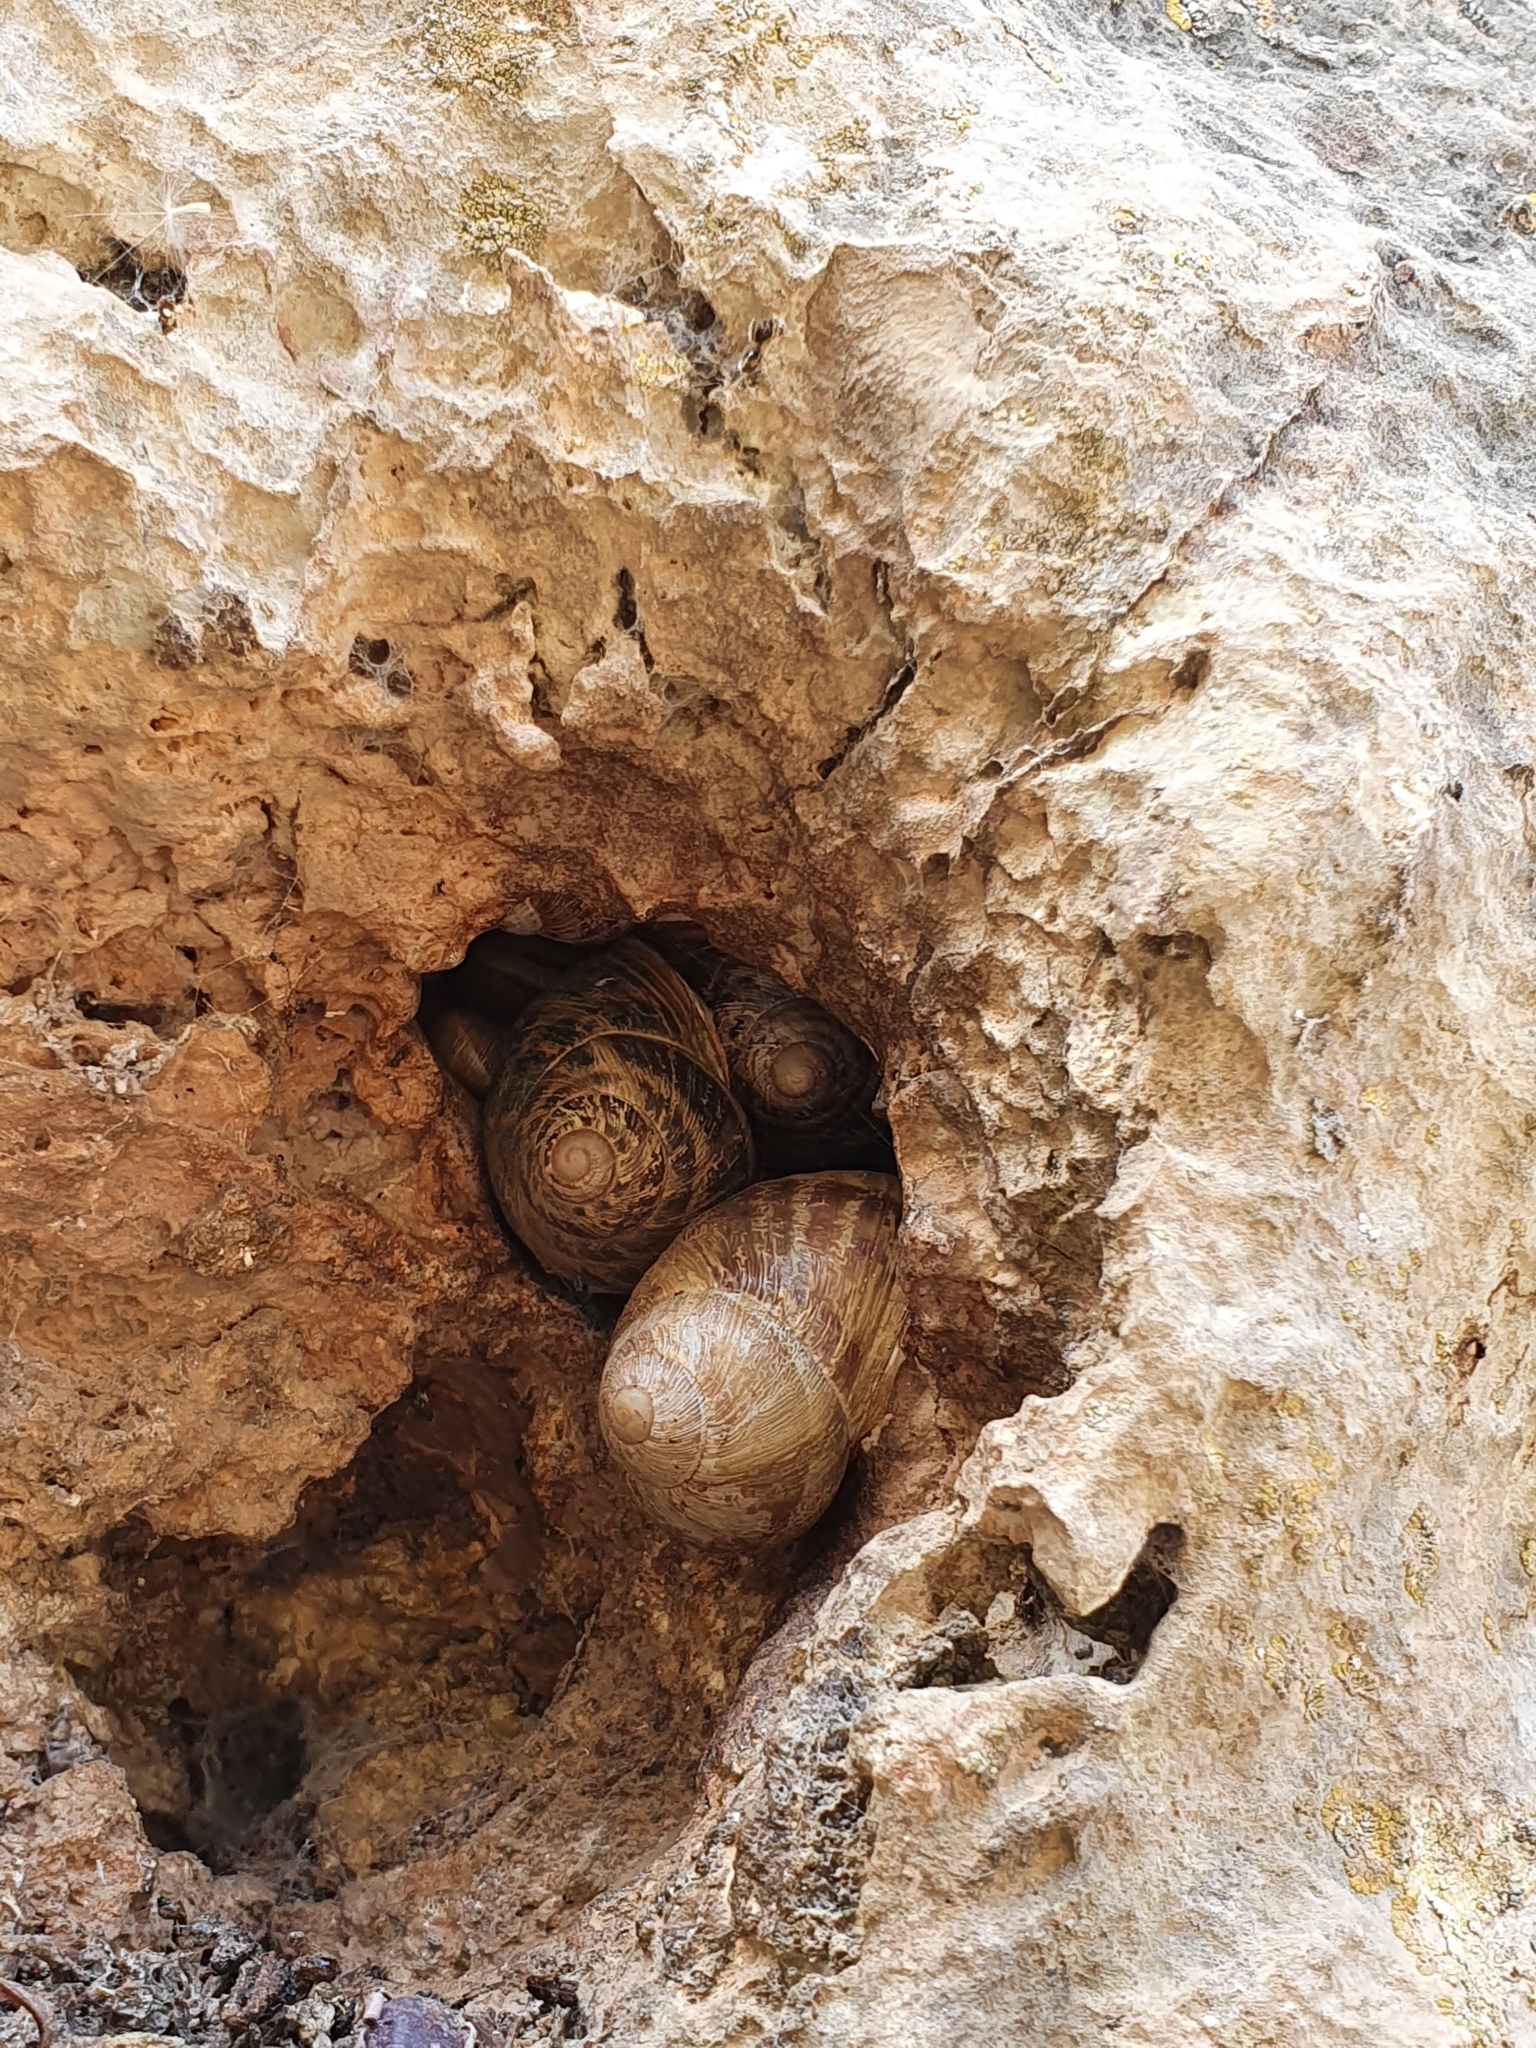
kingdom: Animalia
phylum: Mollusca
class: Gastropoda
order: Stylommatophora
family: Helicidae
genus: Cornu
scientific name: Cornu aspersum
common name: Brown garden snail
